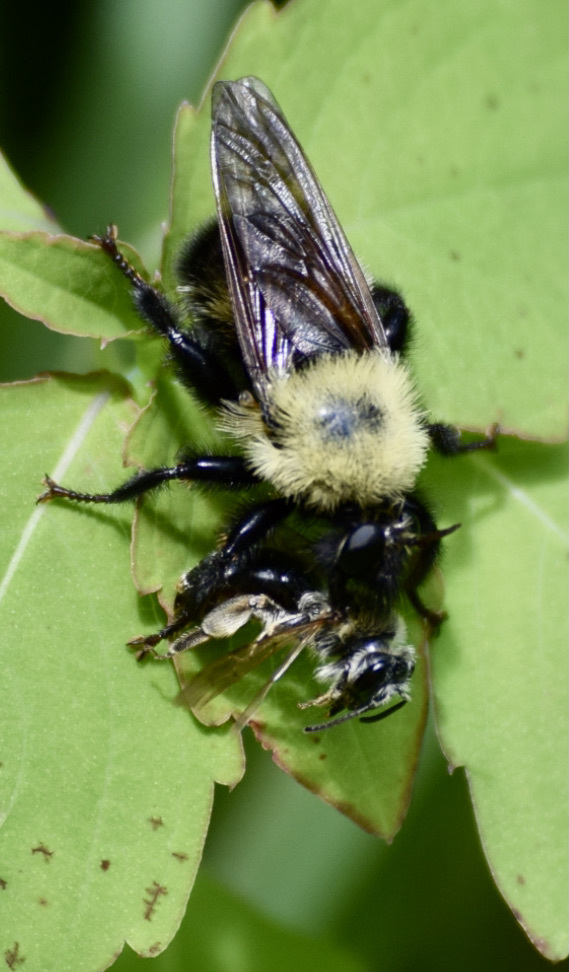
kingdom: Animalia
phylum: Arthropoda
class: Insecta
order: Diptera
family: Asilidae
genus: Laphria
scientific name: Laphria thoracica
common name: Bumble bee mimic robber fly
